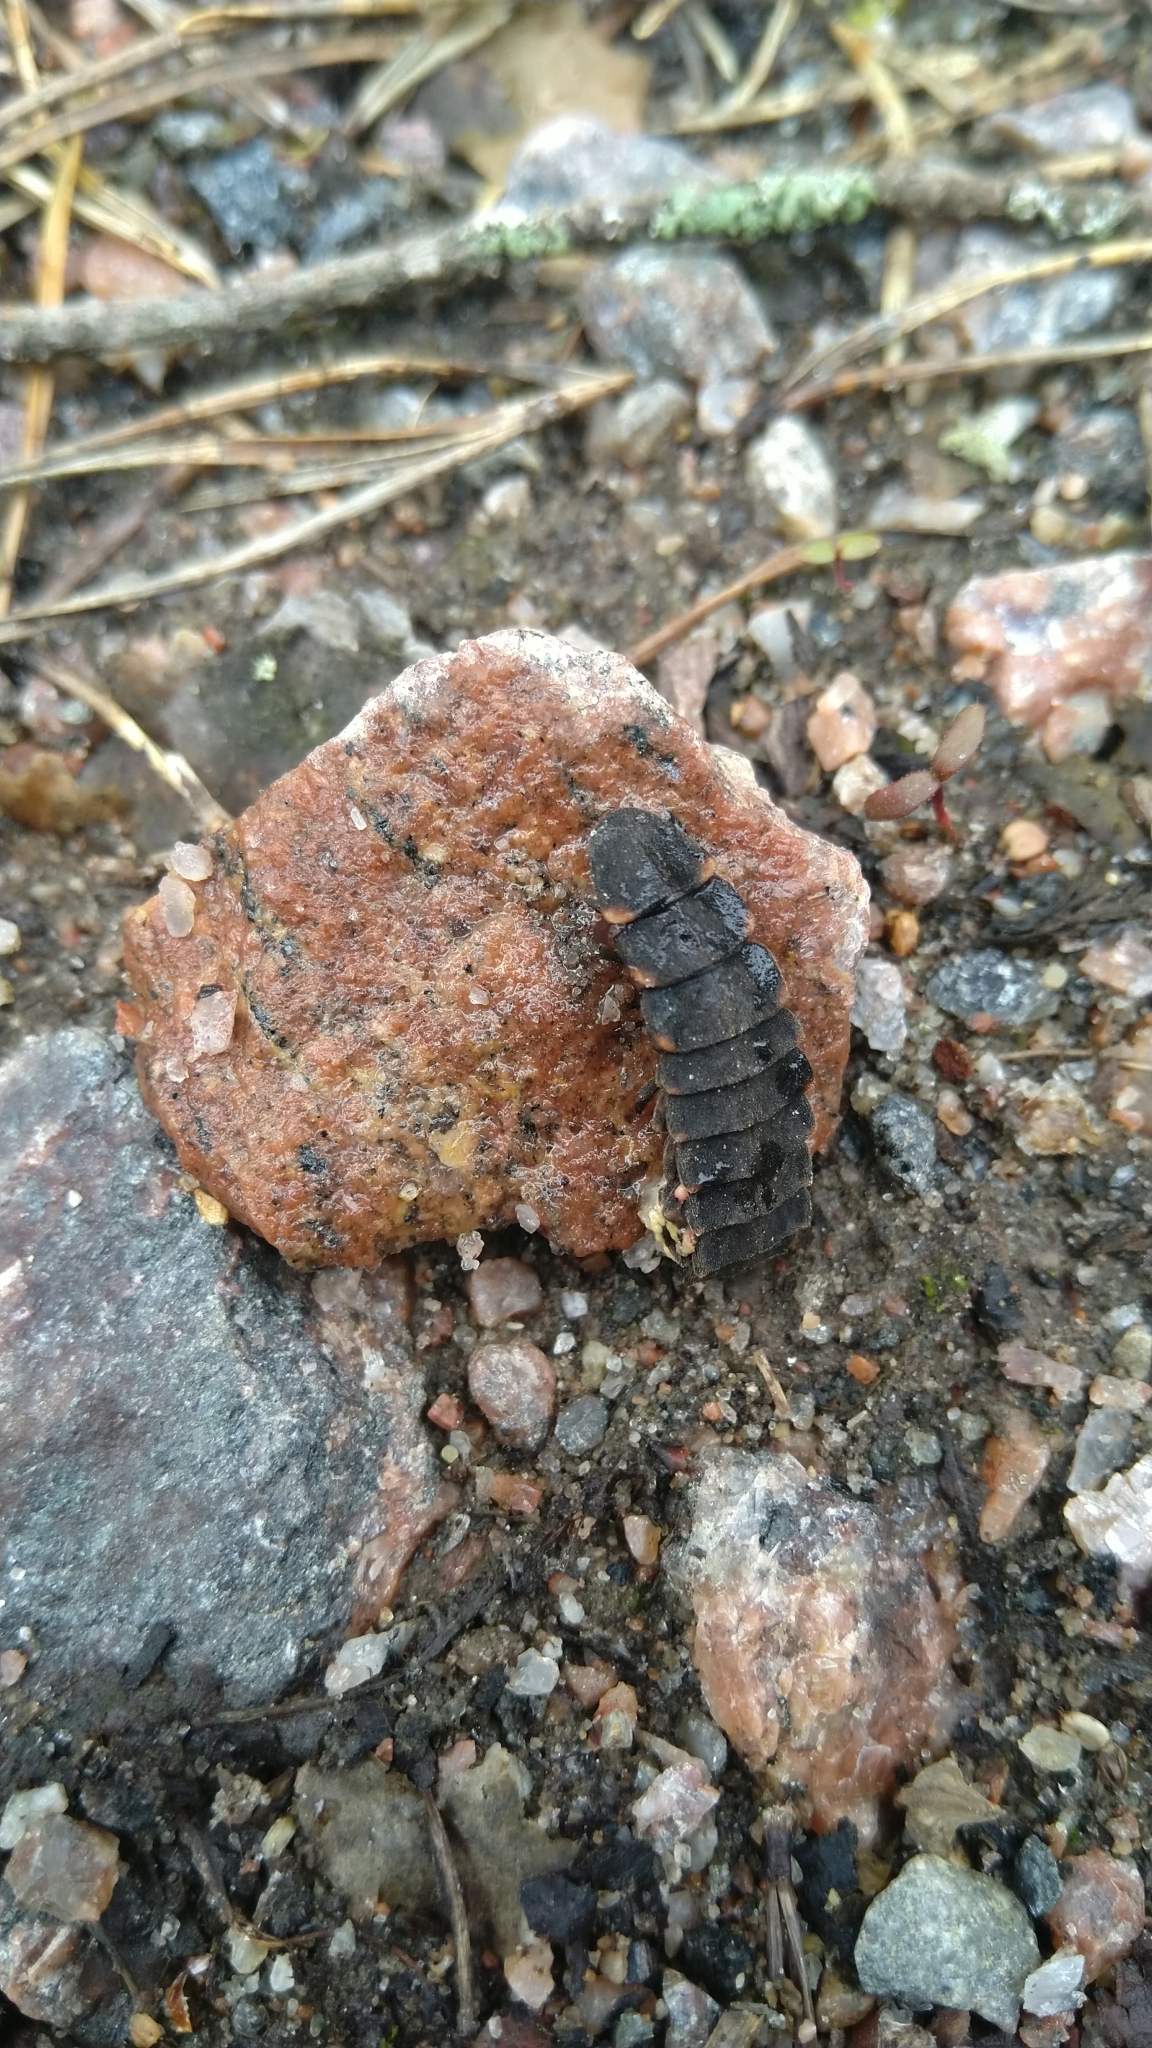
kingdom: Animalia
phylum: Arthropoda
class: Insecta
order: Coleoptera
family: Lampyridae
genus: Lampyris
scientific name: Lampyris noctiluca
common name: Glow-worm
